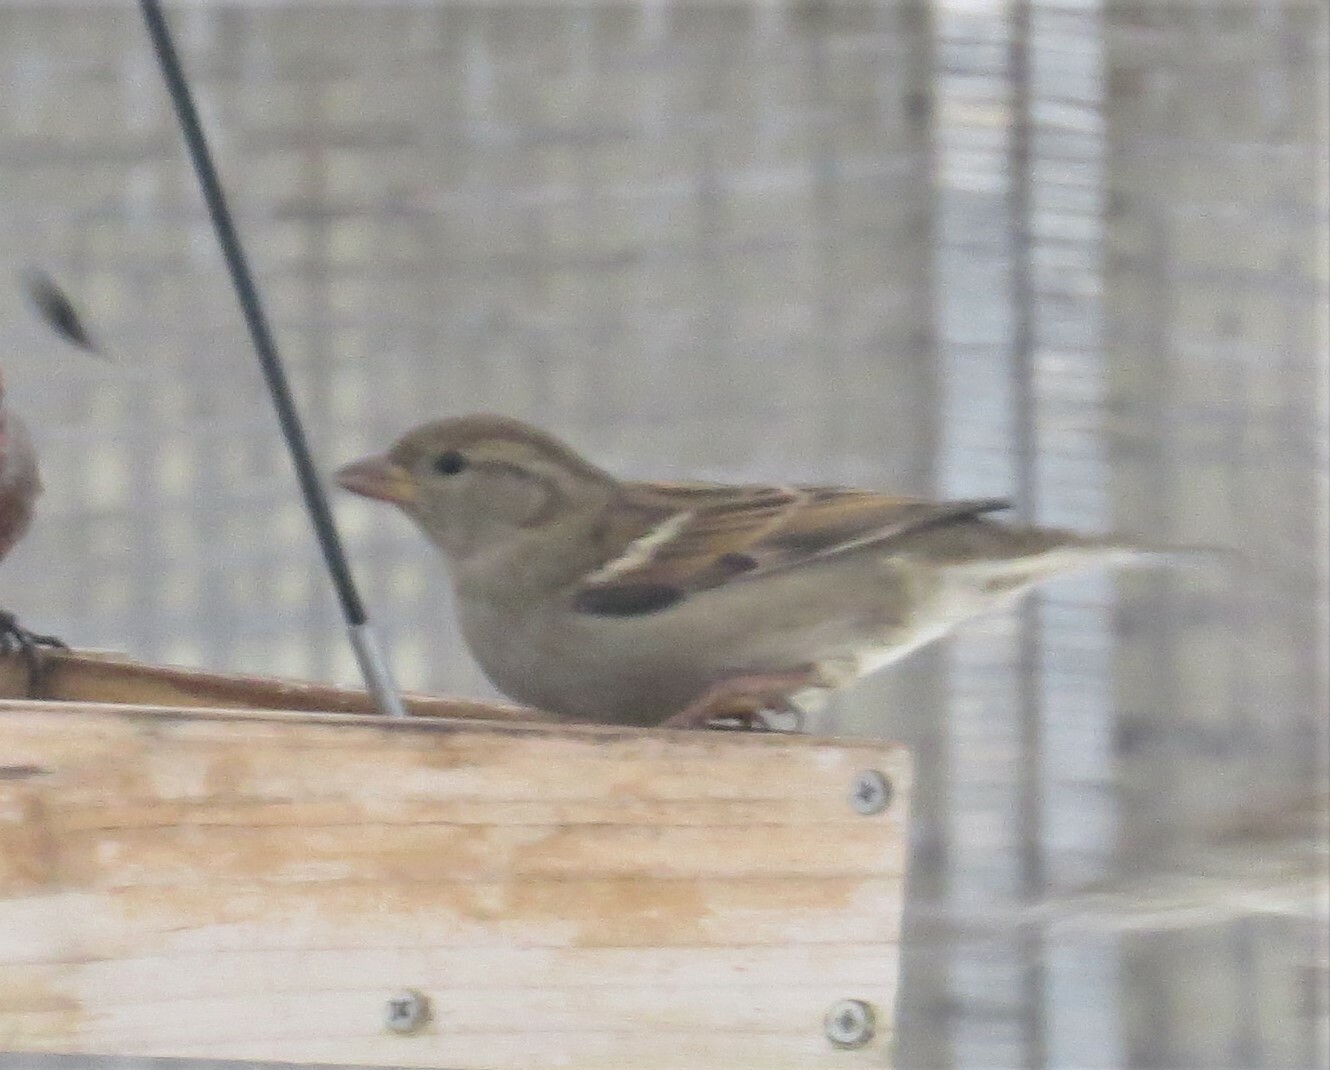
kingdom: Animalia
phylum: Chordata
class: Aves
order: Passeriformes
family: Passeridae
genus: Passer
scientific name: Passer domesticus
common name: House sparrow
